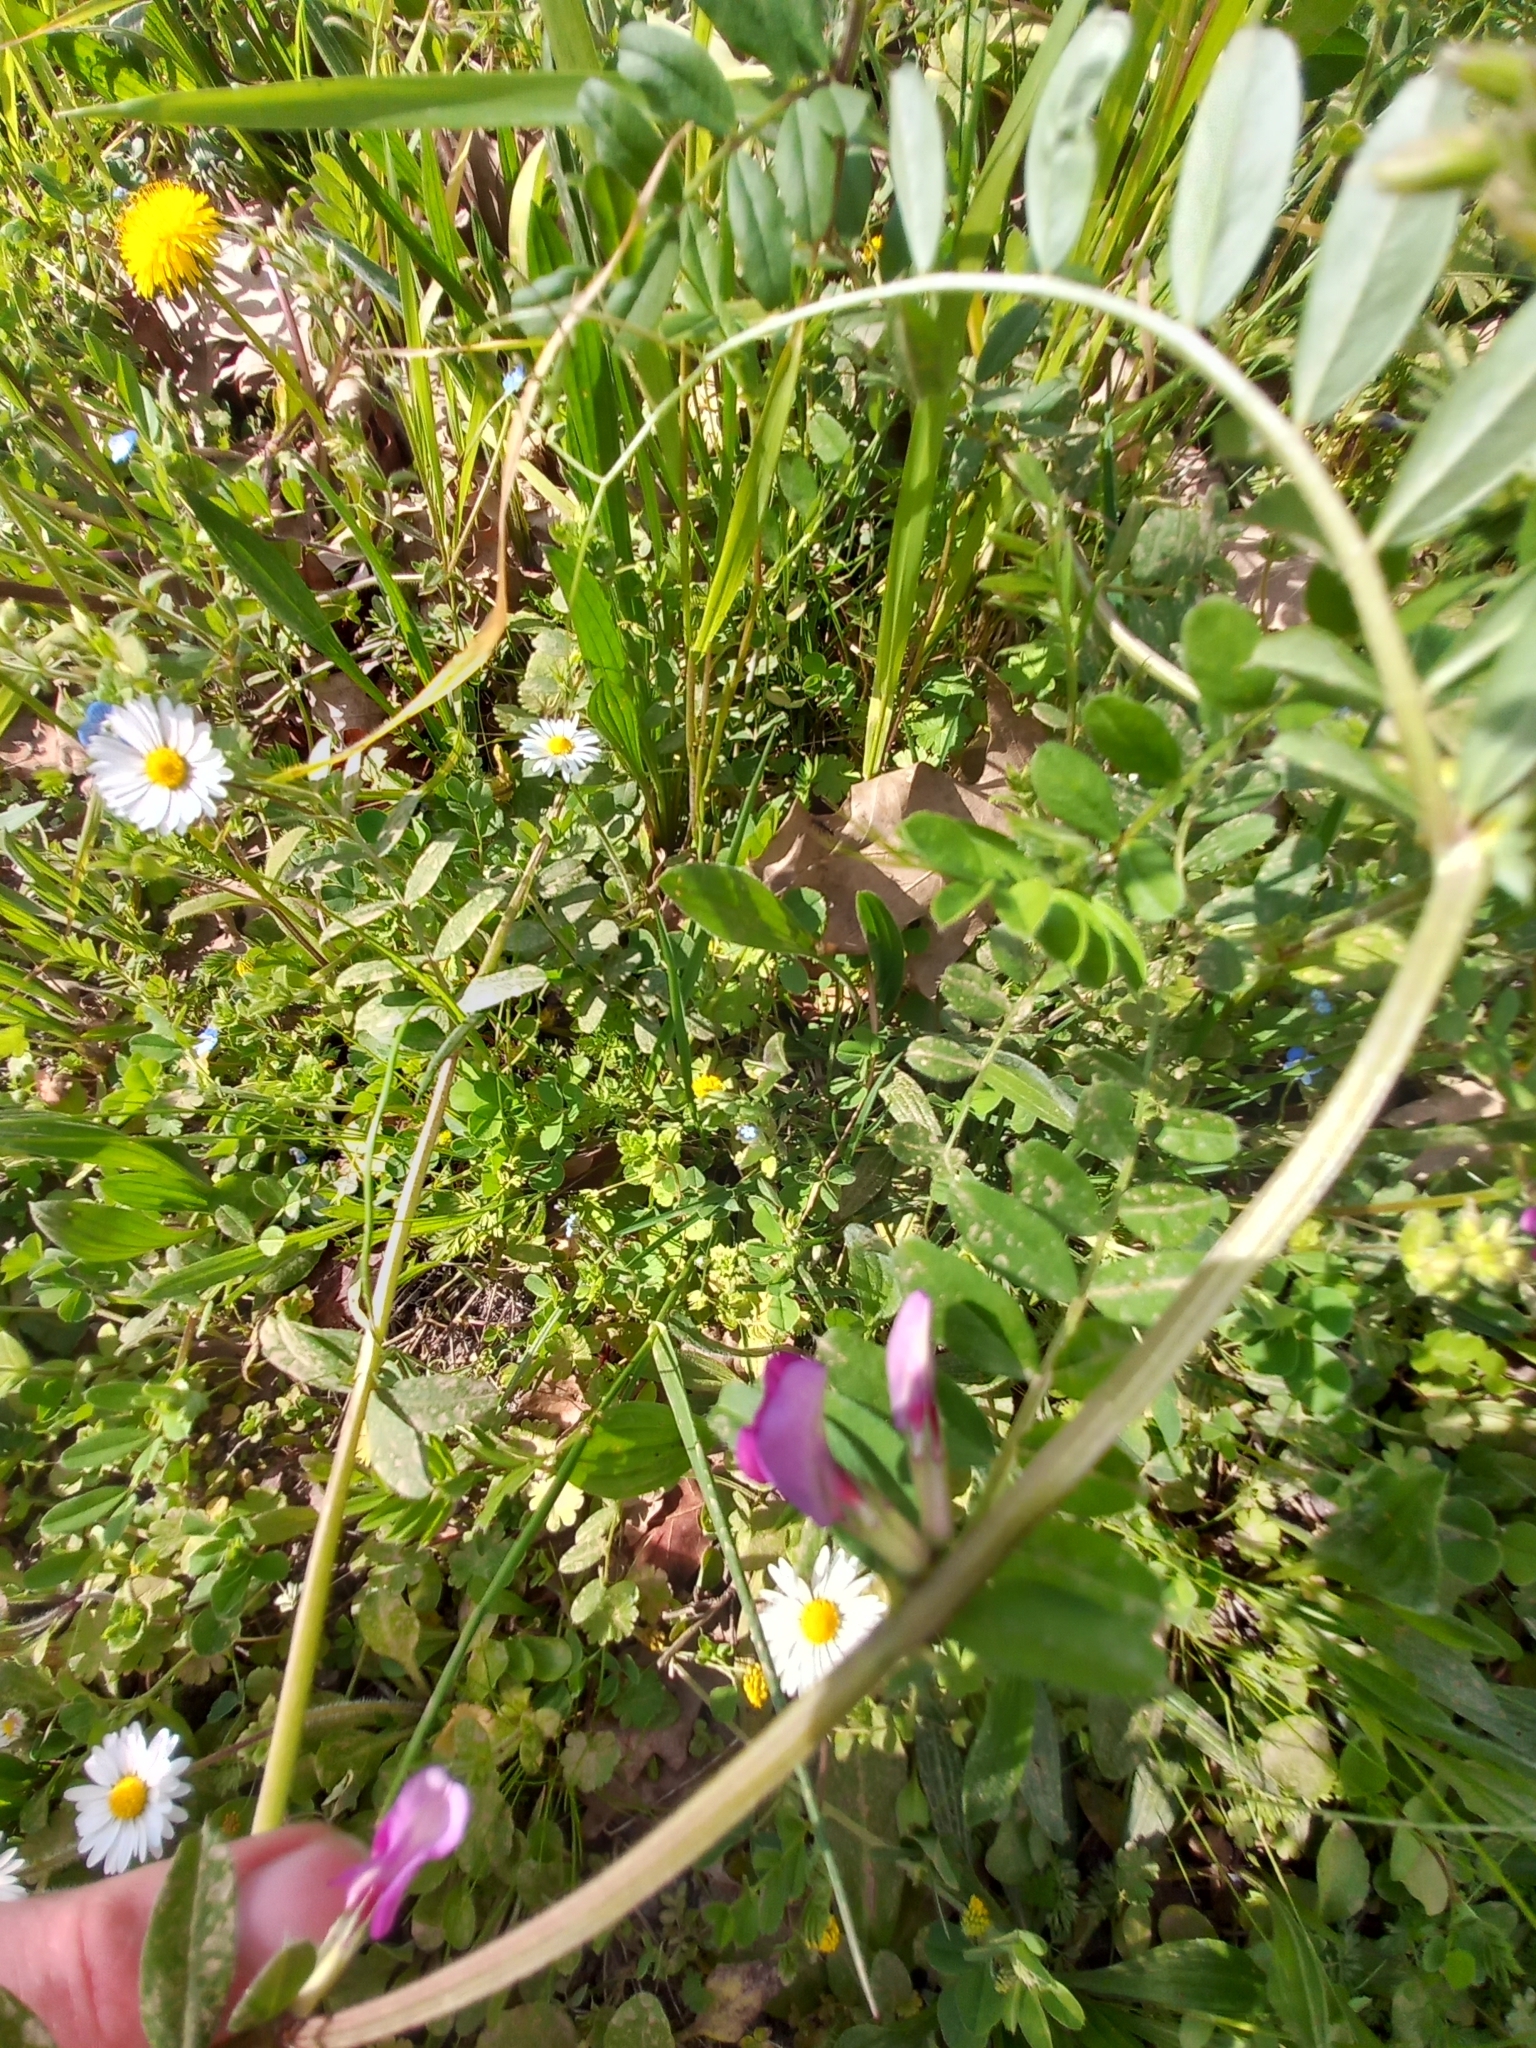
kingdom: Plantae
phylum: Tracheophyta
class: Magnoliopsida
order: Fabales
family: Fabaceae
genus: Vicia
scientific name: Vicia sativa
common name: Garden vetch
